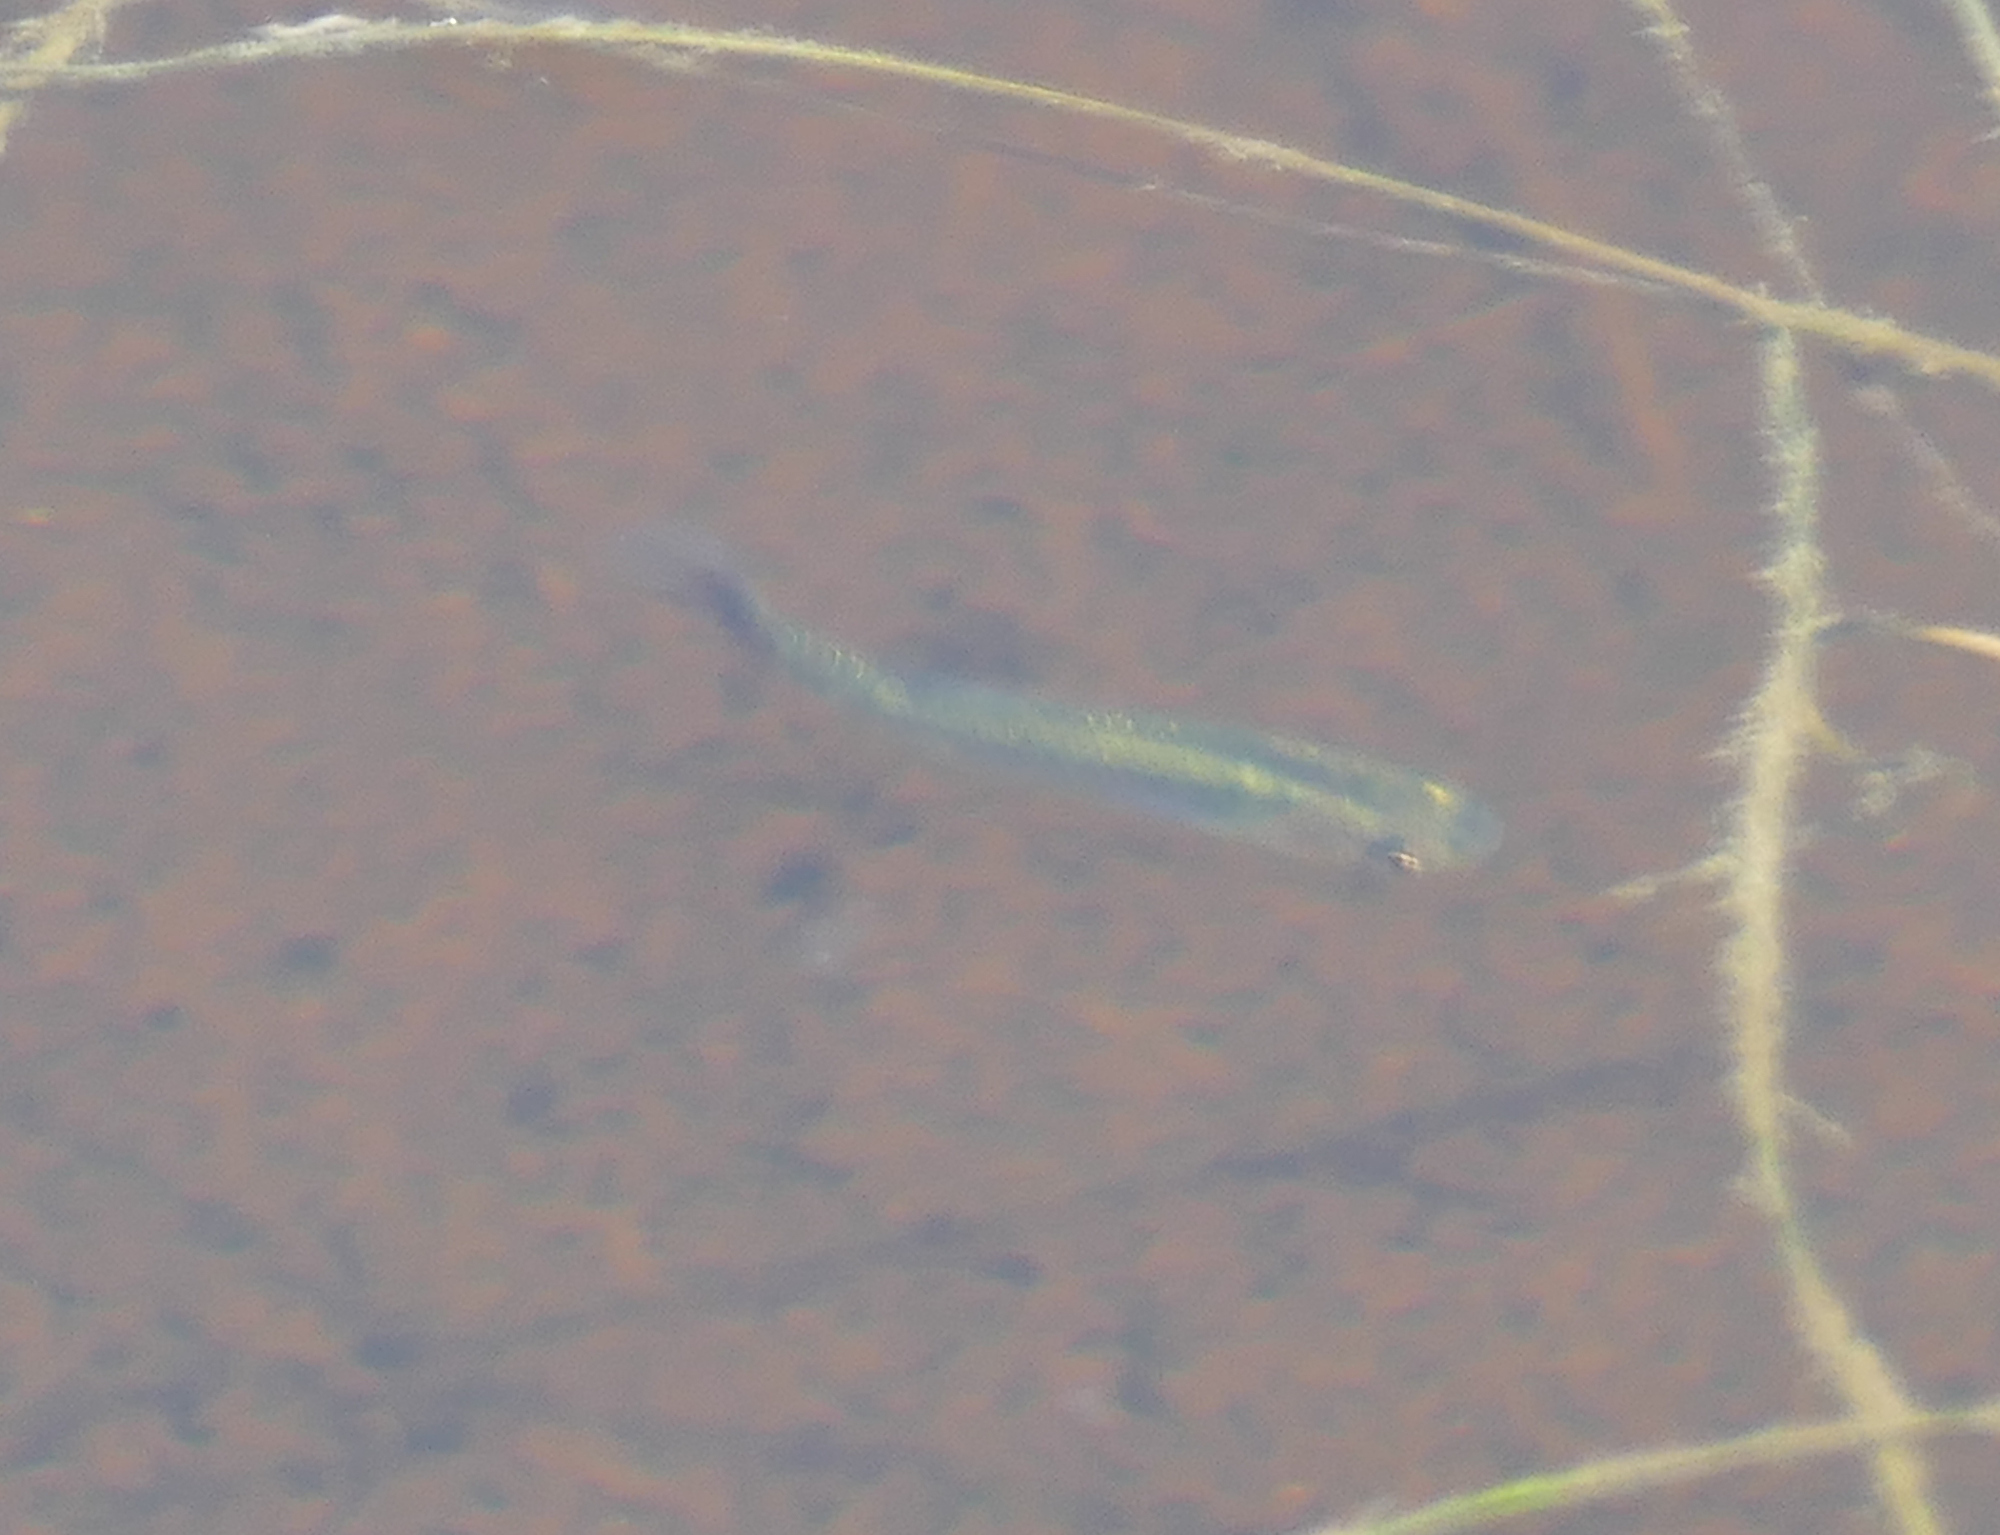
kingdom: Animalia
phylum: Chordata
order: Cyprinodontiformes
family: Poeciliidae
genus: Gambusia
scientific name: Gambusia holbrooki
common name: Eastern mosquitofish
